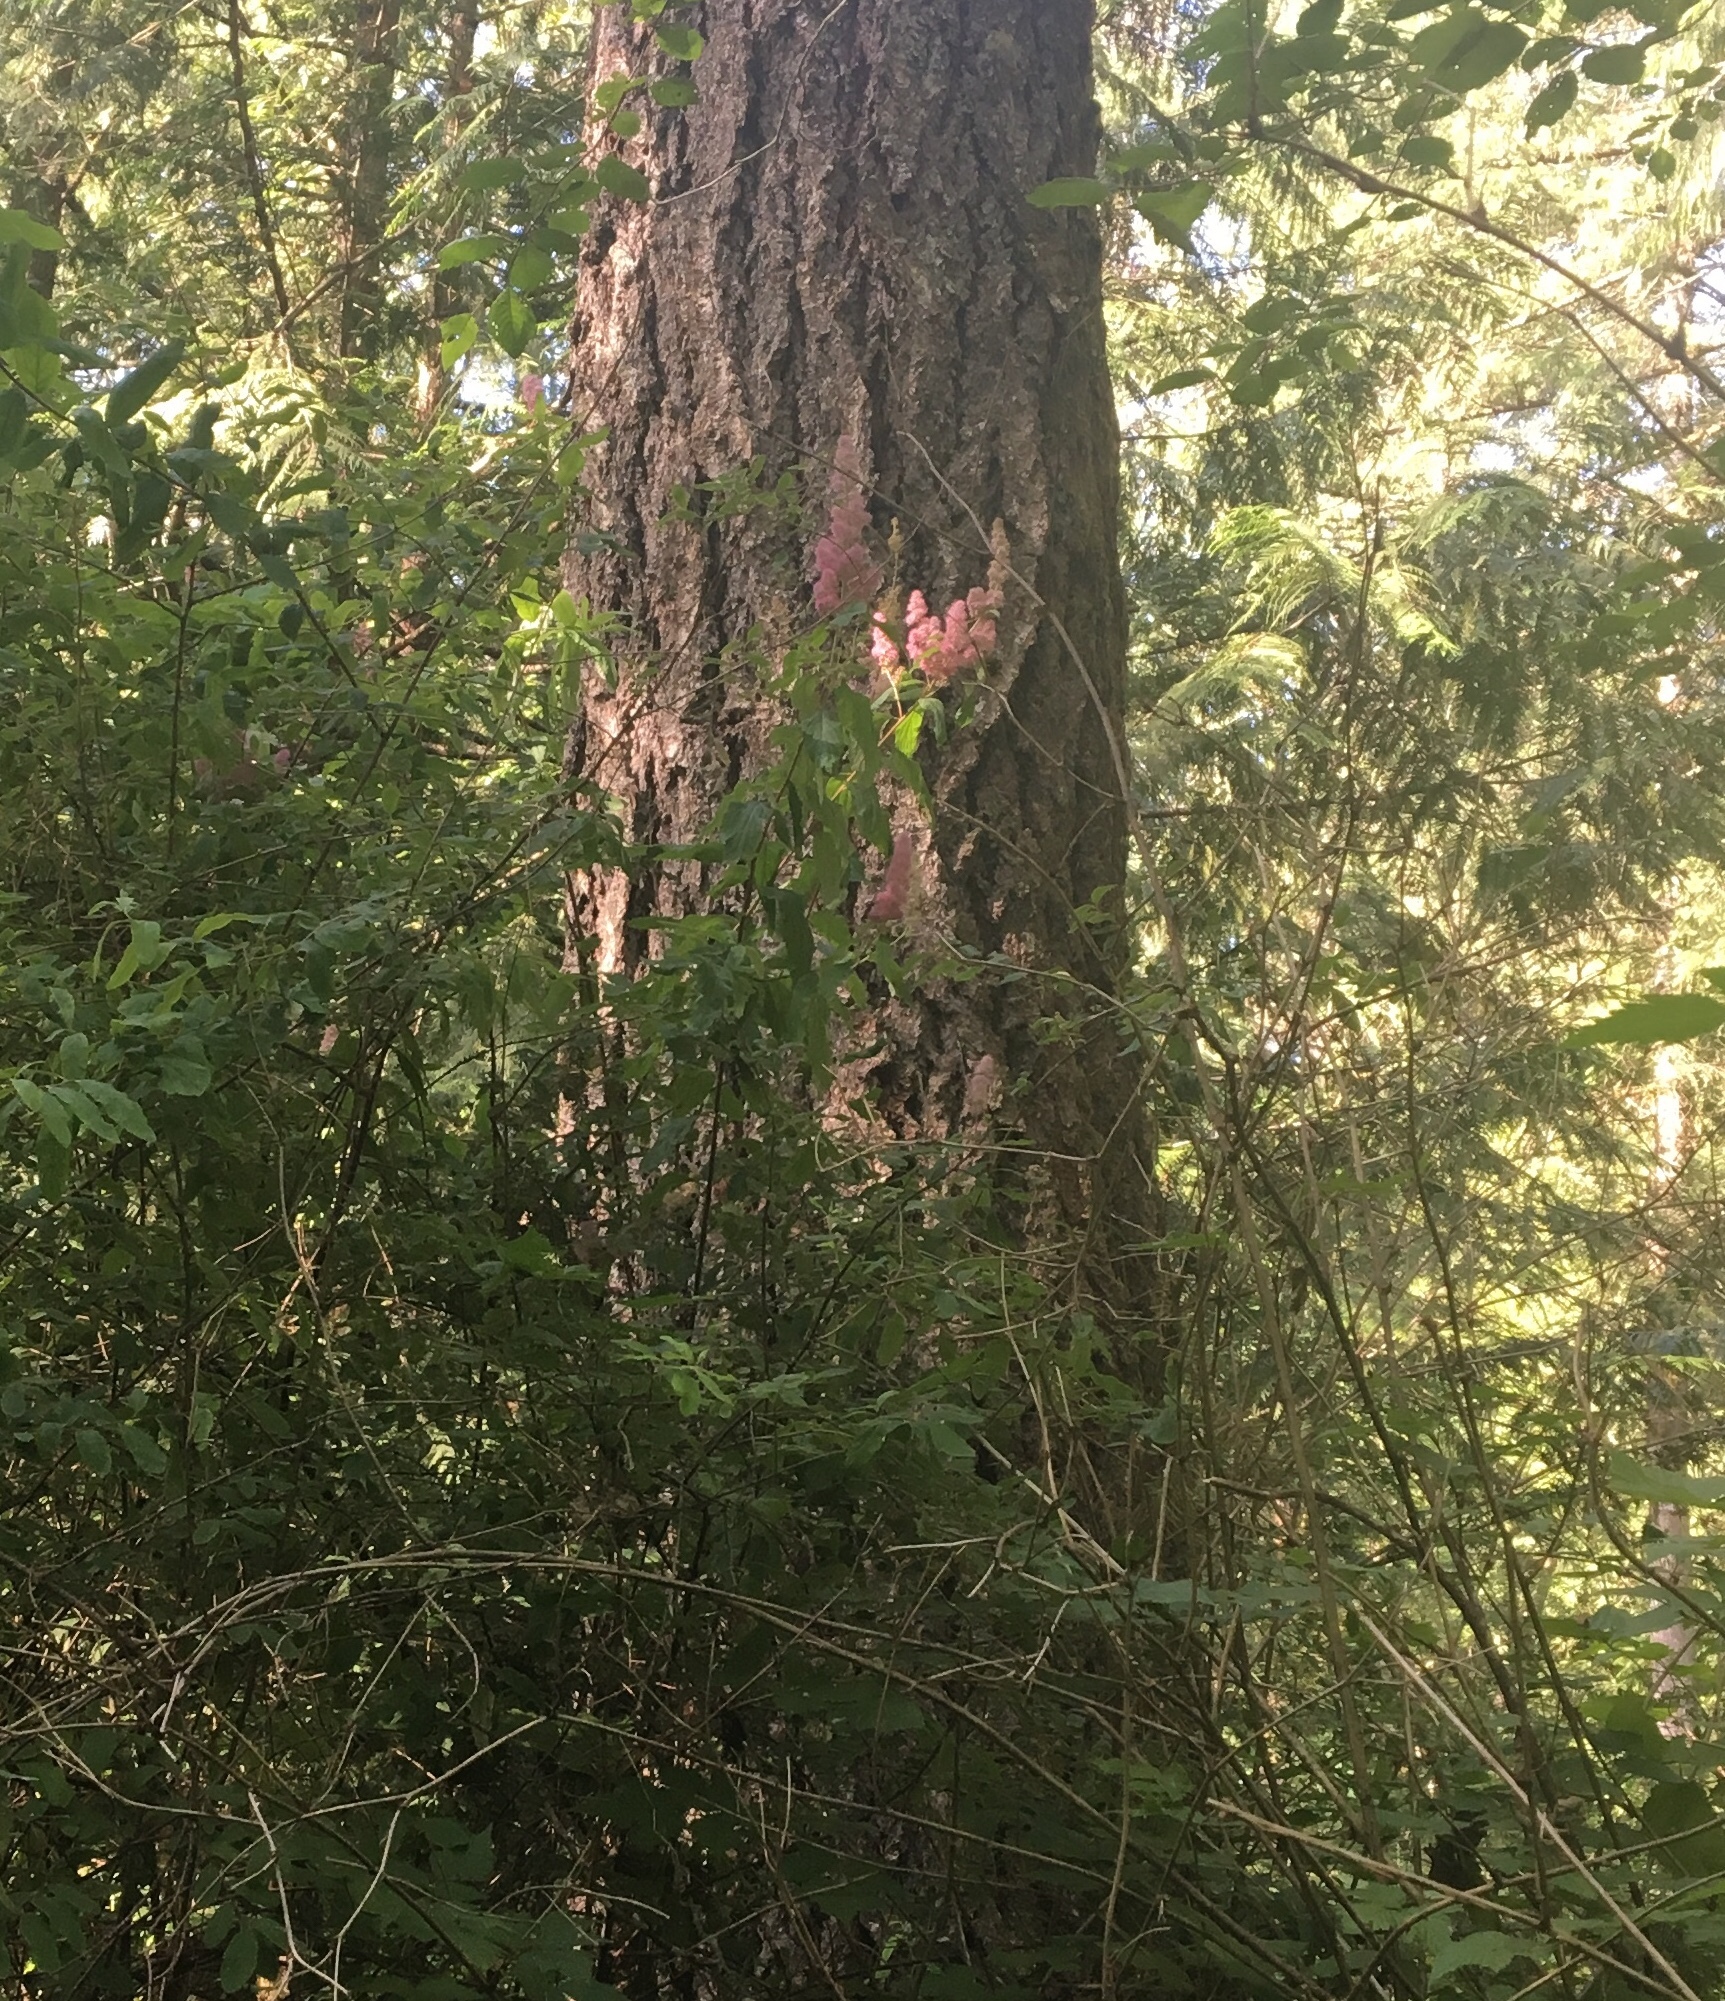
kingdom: Plantae
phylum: Tracheophyta
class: Magnoliopsida
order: Rosales
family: Rosaceae
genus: Spiraea
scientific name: Spiraea douglasii
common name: Steeplebush
